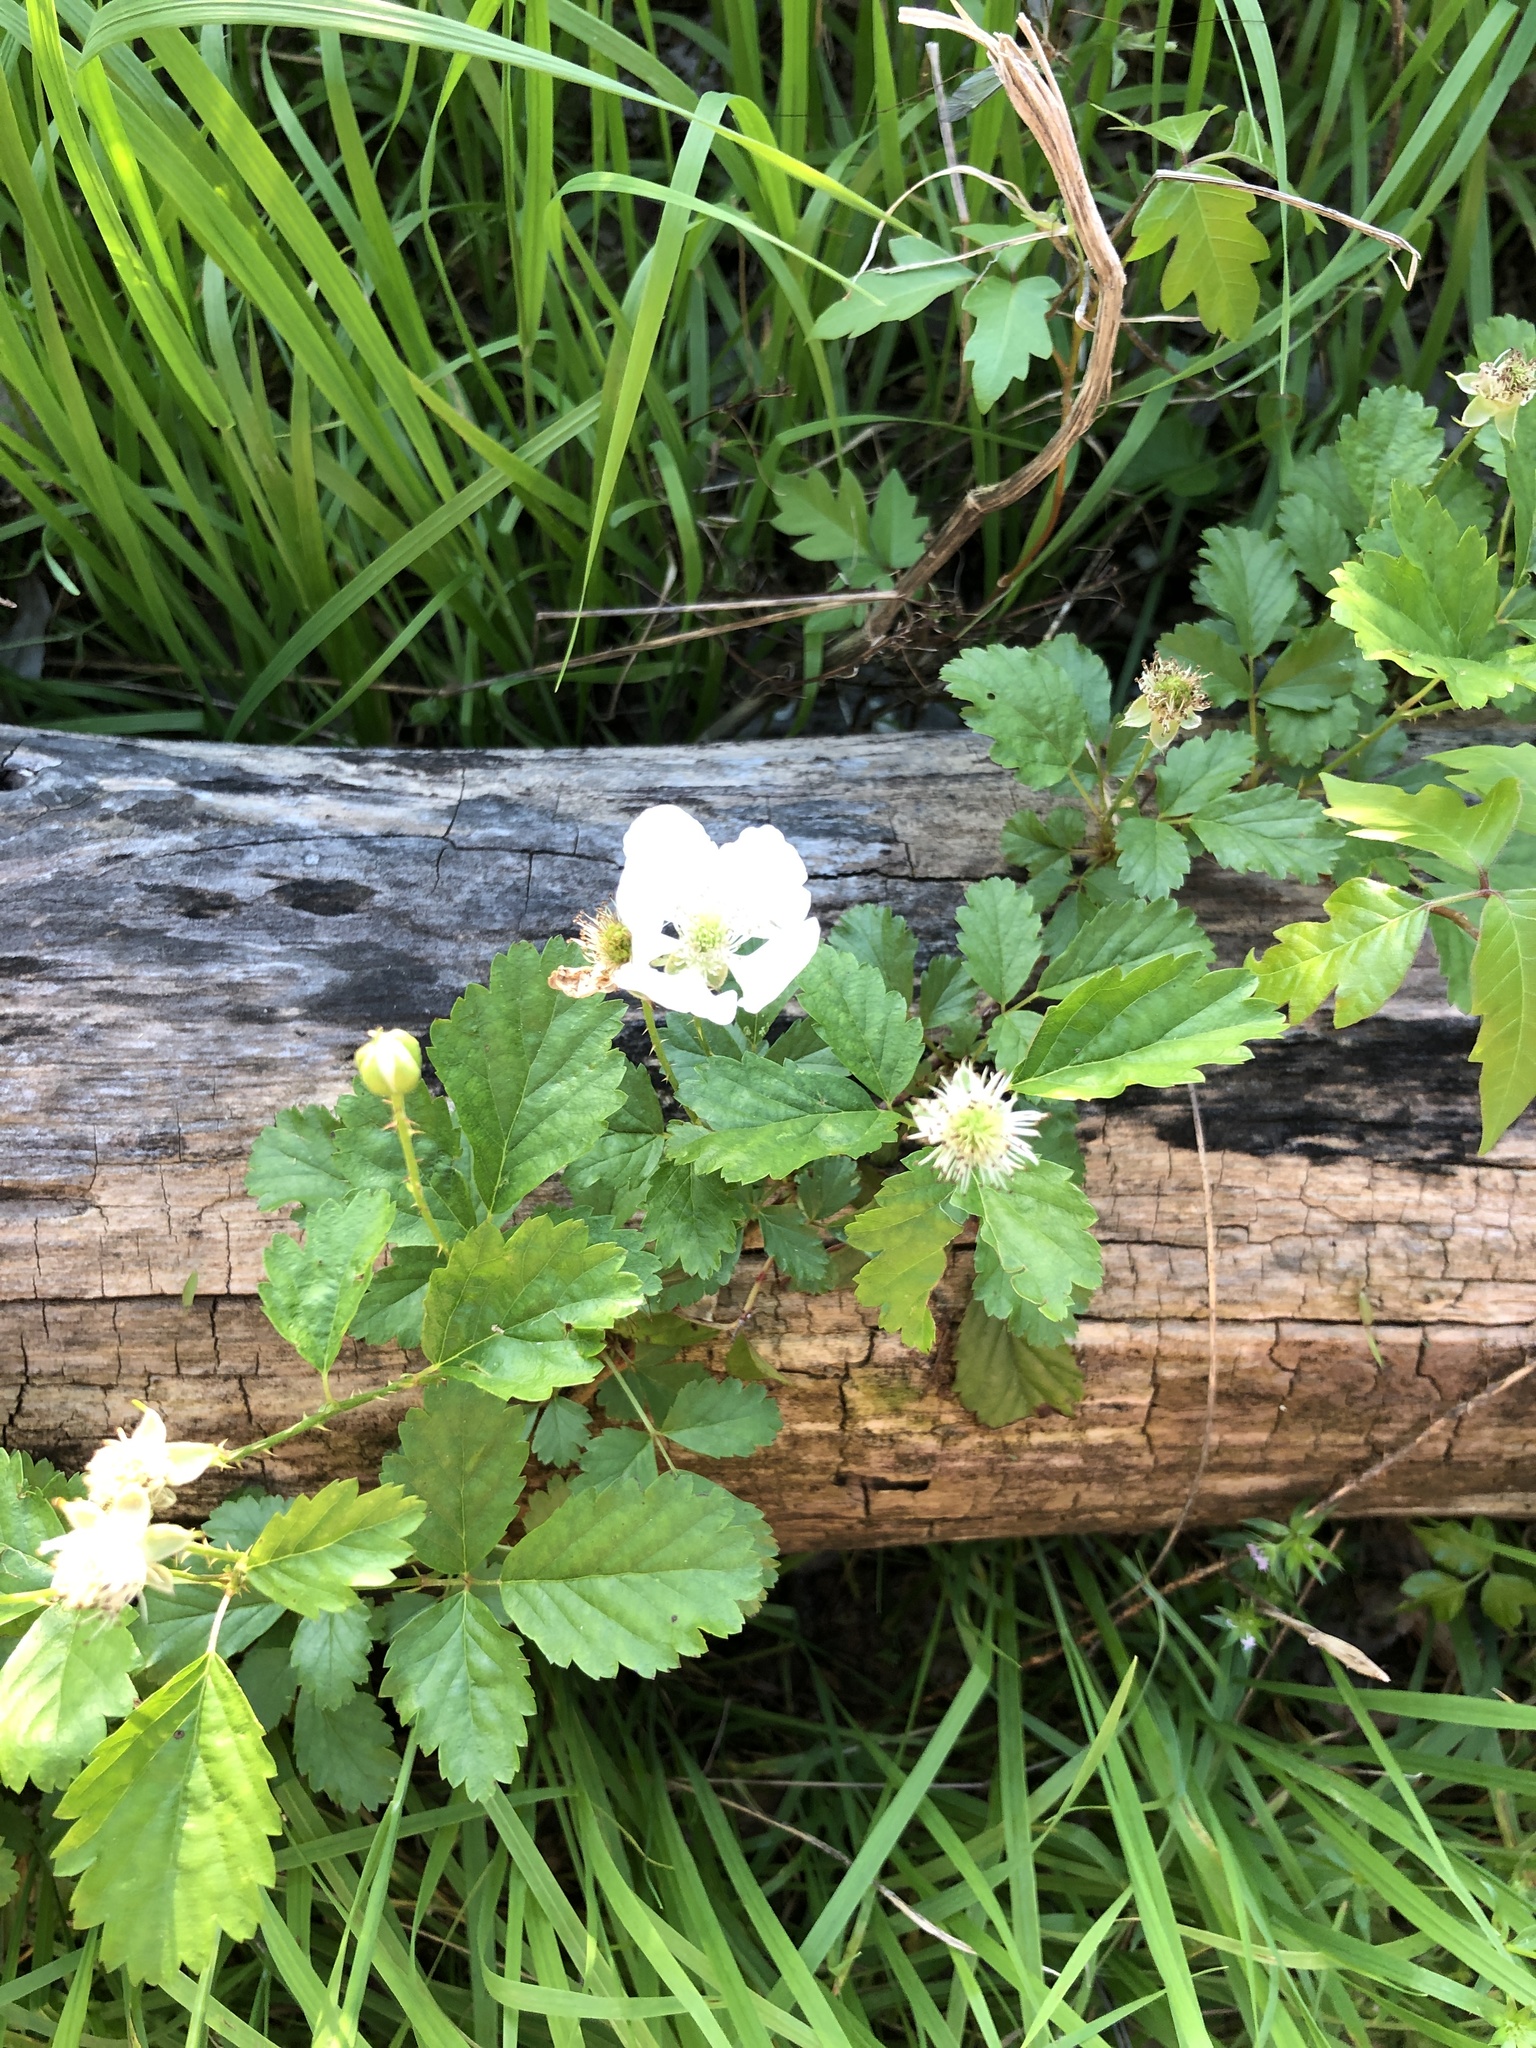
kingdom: Plantae
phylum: Tracheophyta
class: Magnoliopsida
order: Rosales
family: Rosaceae
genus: Rubus
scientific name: Rubus trivialis
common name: Southern dewberry
